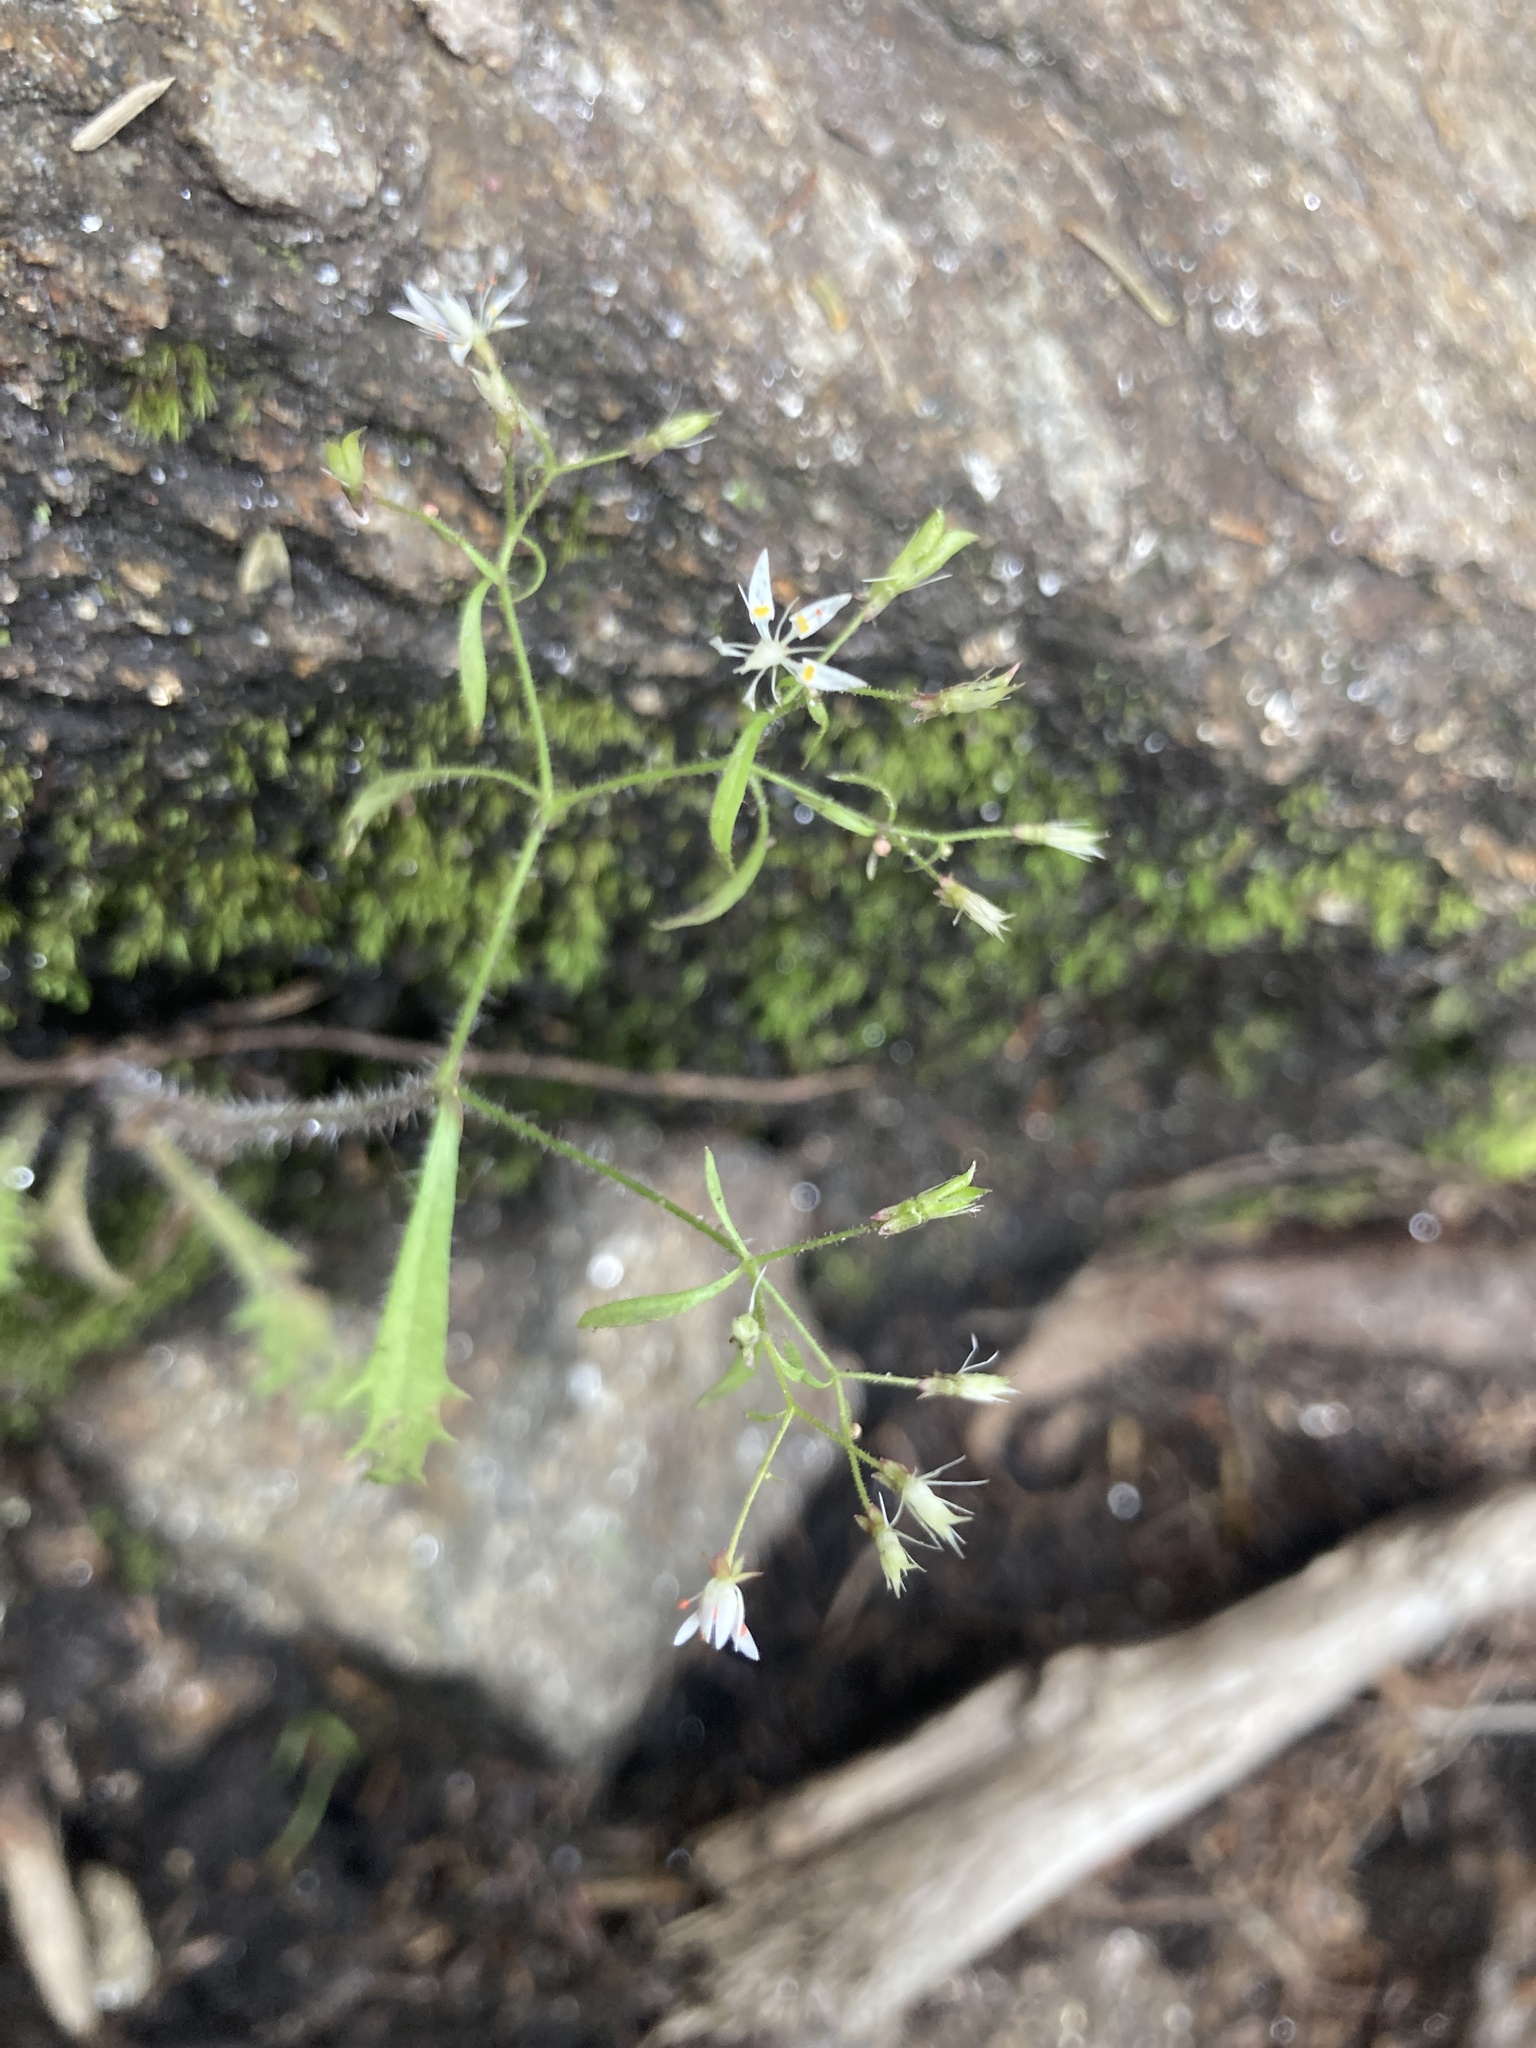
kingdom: Plantae
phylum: Tracheophyta
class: Magnoliopsida
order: Saxifragales
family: Saxifragaceae
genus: Micranthes
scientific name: Micranthes petiolaris
